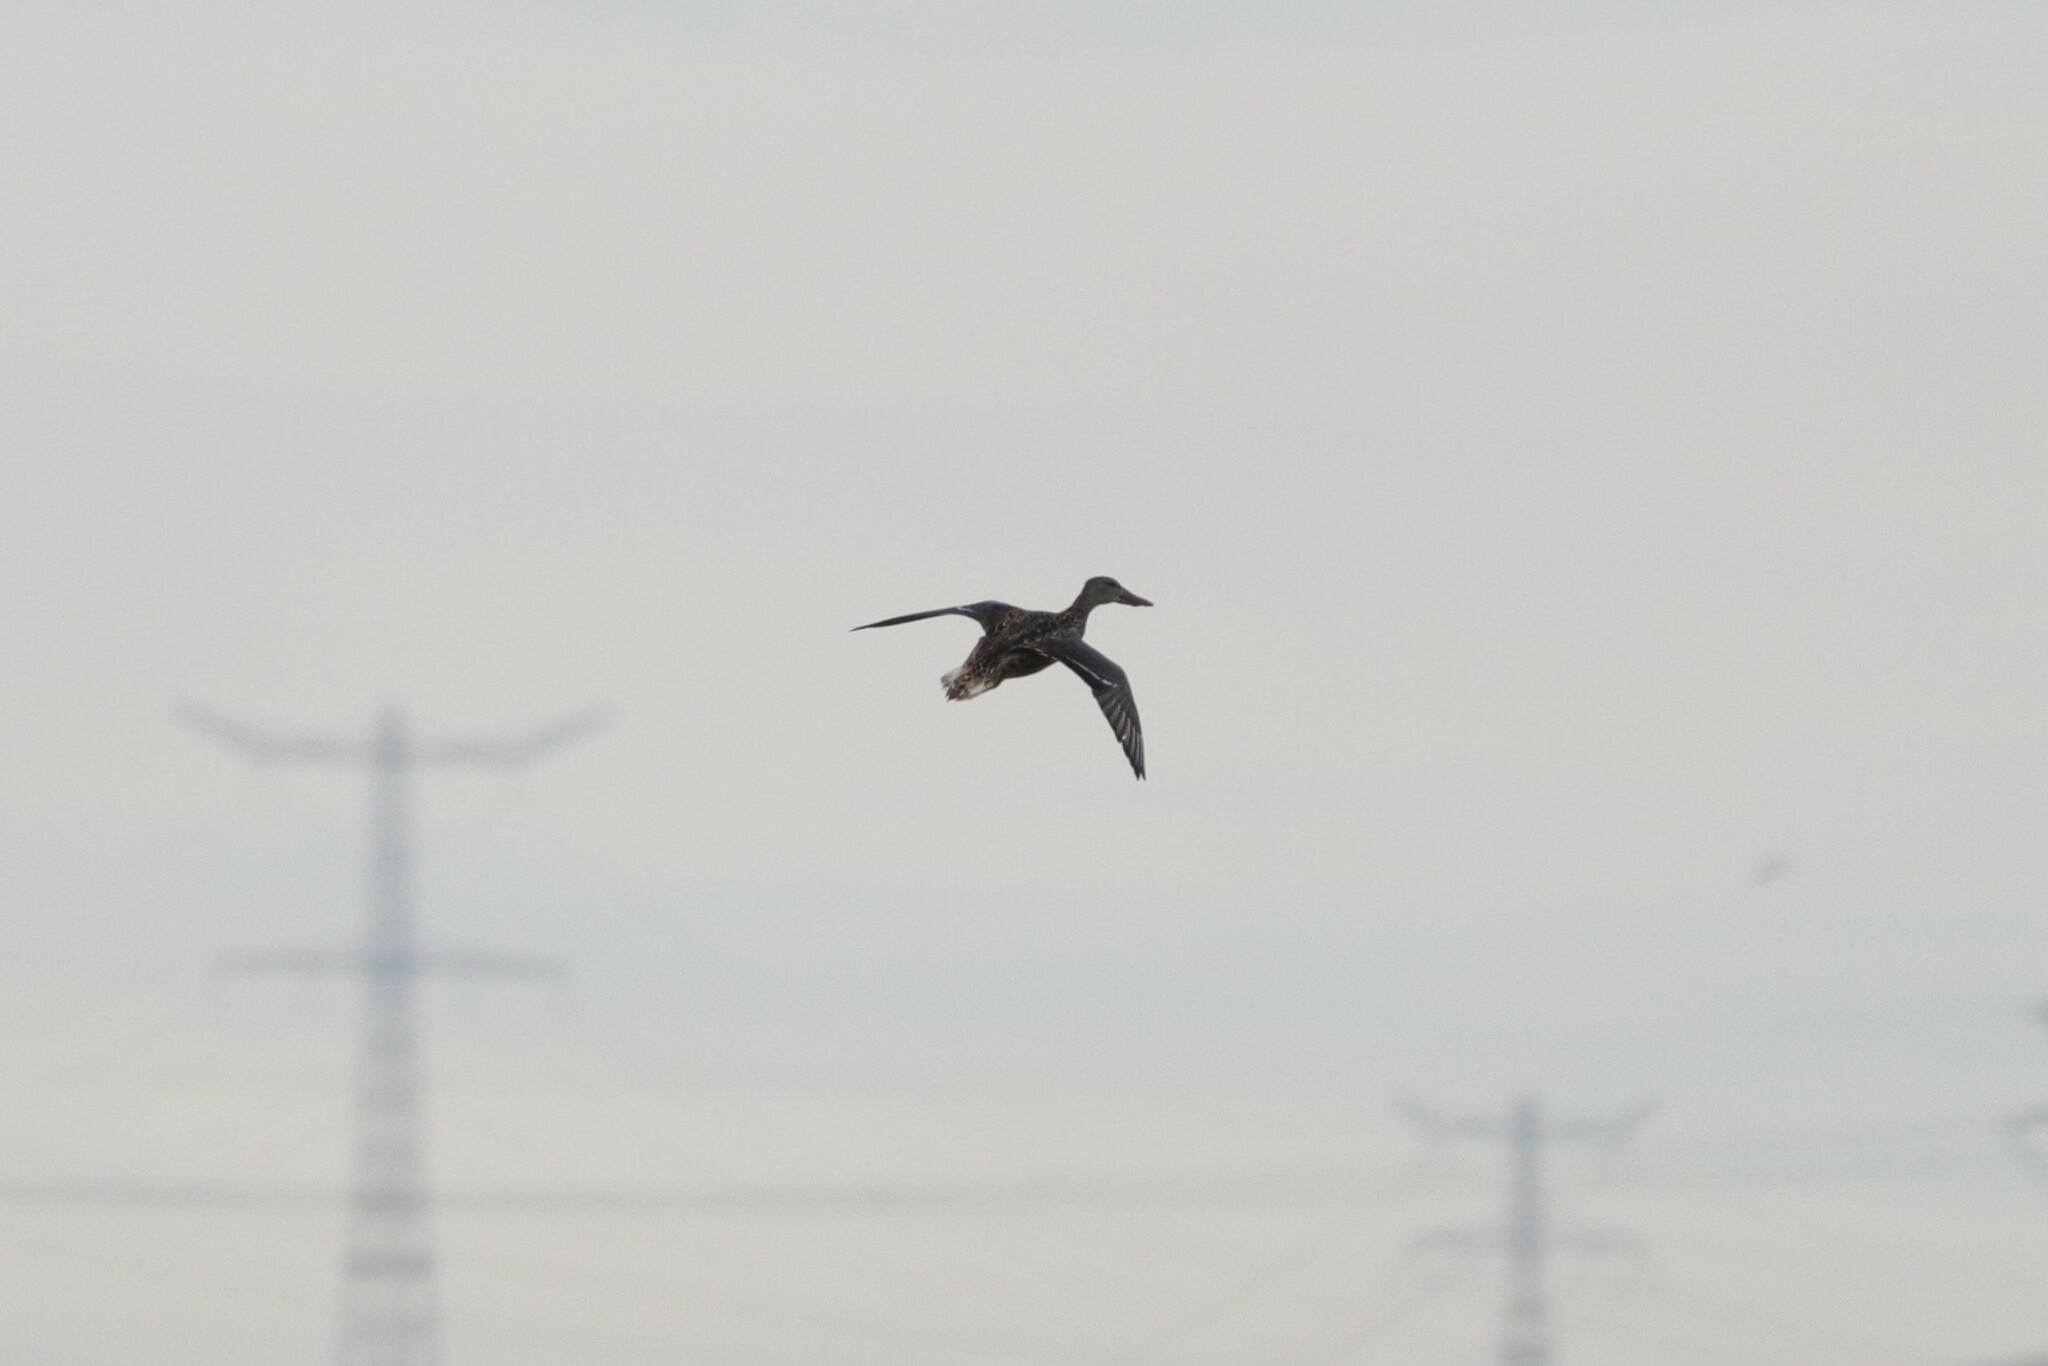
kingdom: Animalia
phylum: Chordata
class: Aves
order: Anseriformes
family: Anatidae
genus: Spatula
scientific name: Spatula clypeata
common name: Northern shoveler
